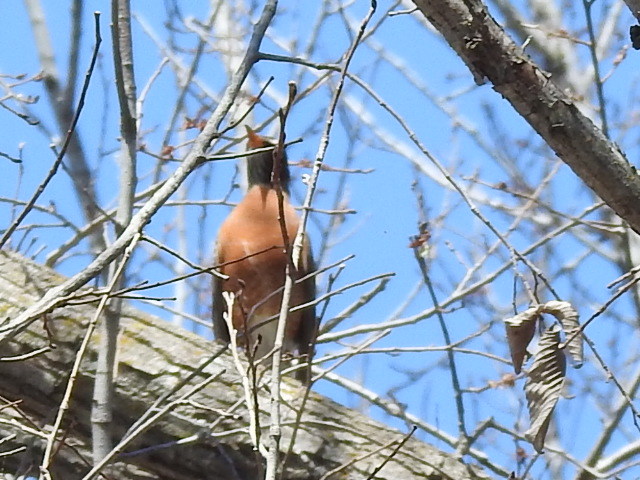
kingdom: Animalia
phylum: Chordata
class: Aves
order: Passeriformes
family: Turdidae
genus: Turdus
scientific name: Turdus migratorius
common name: American robin
